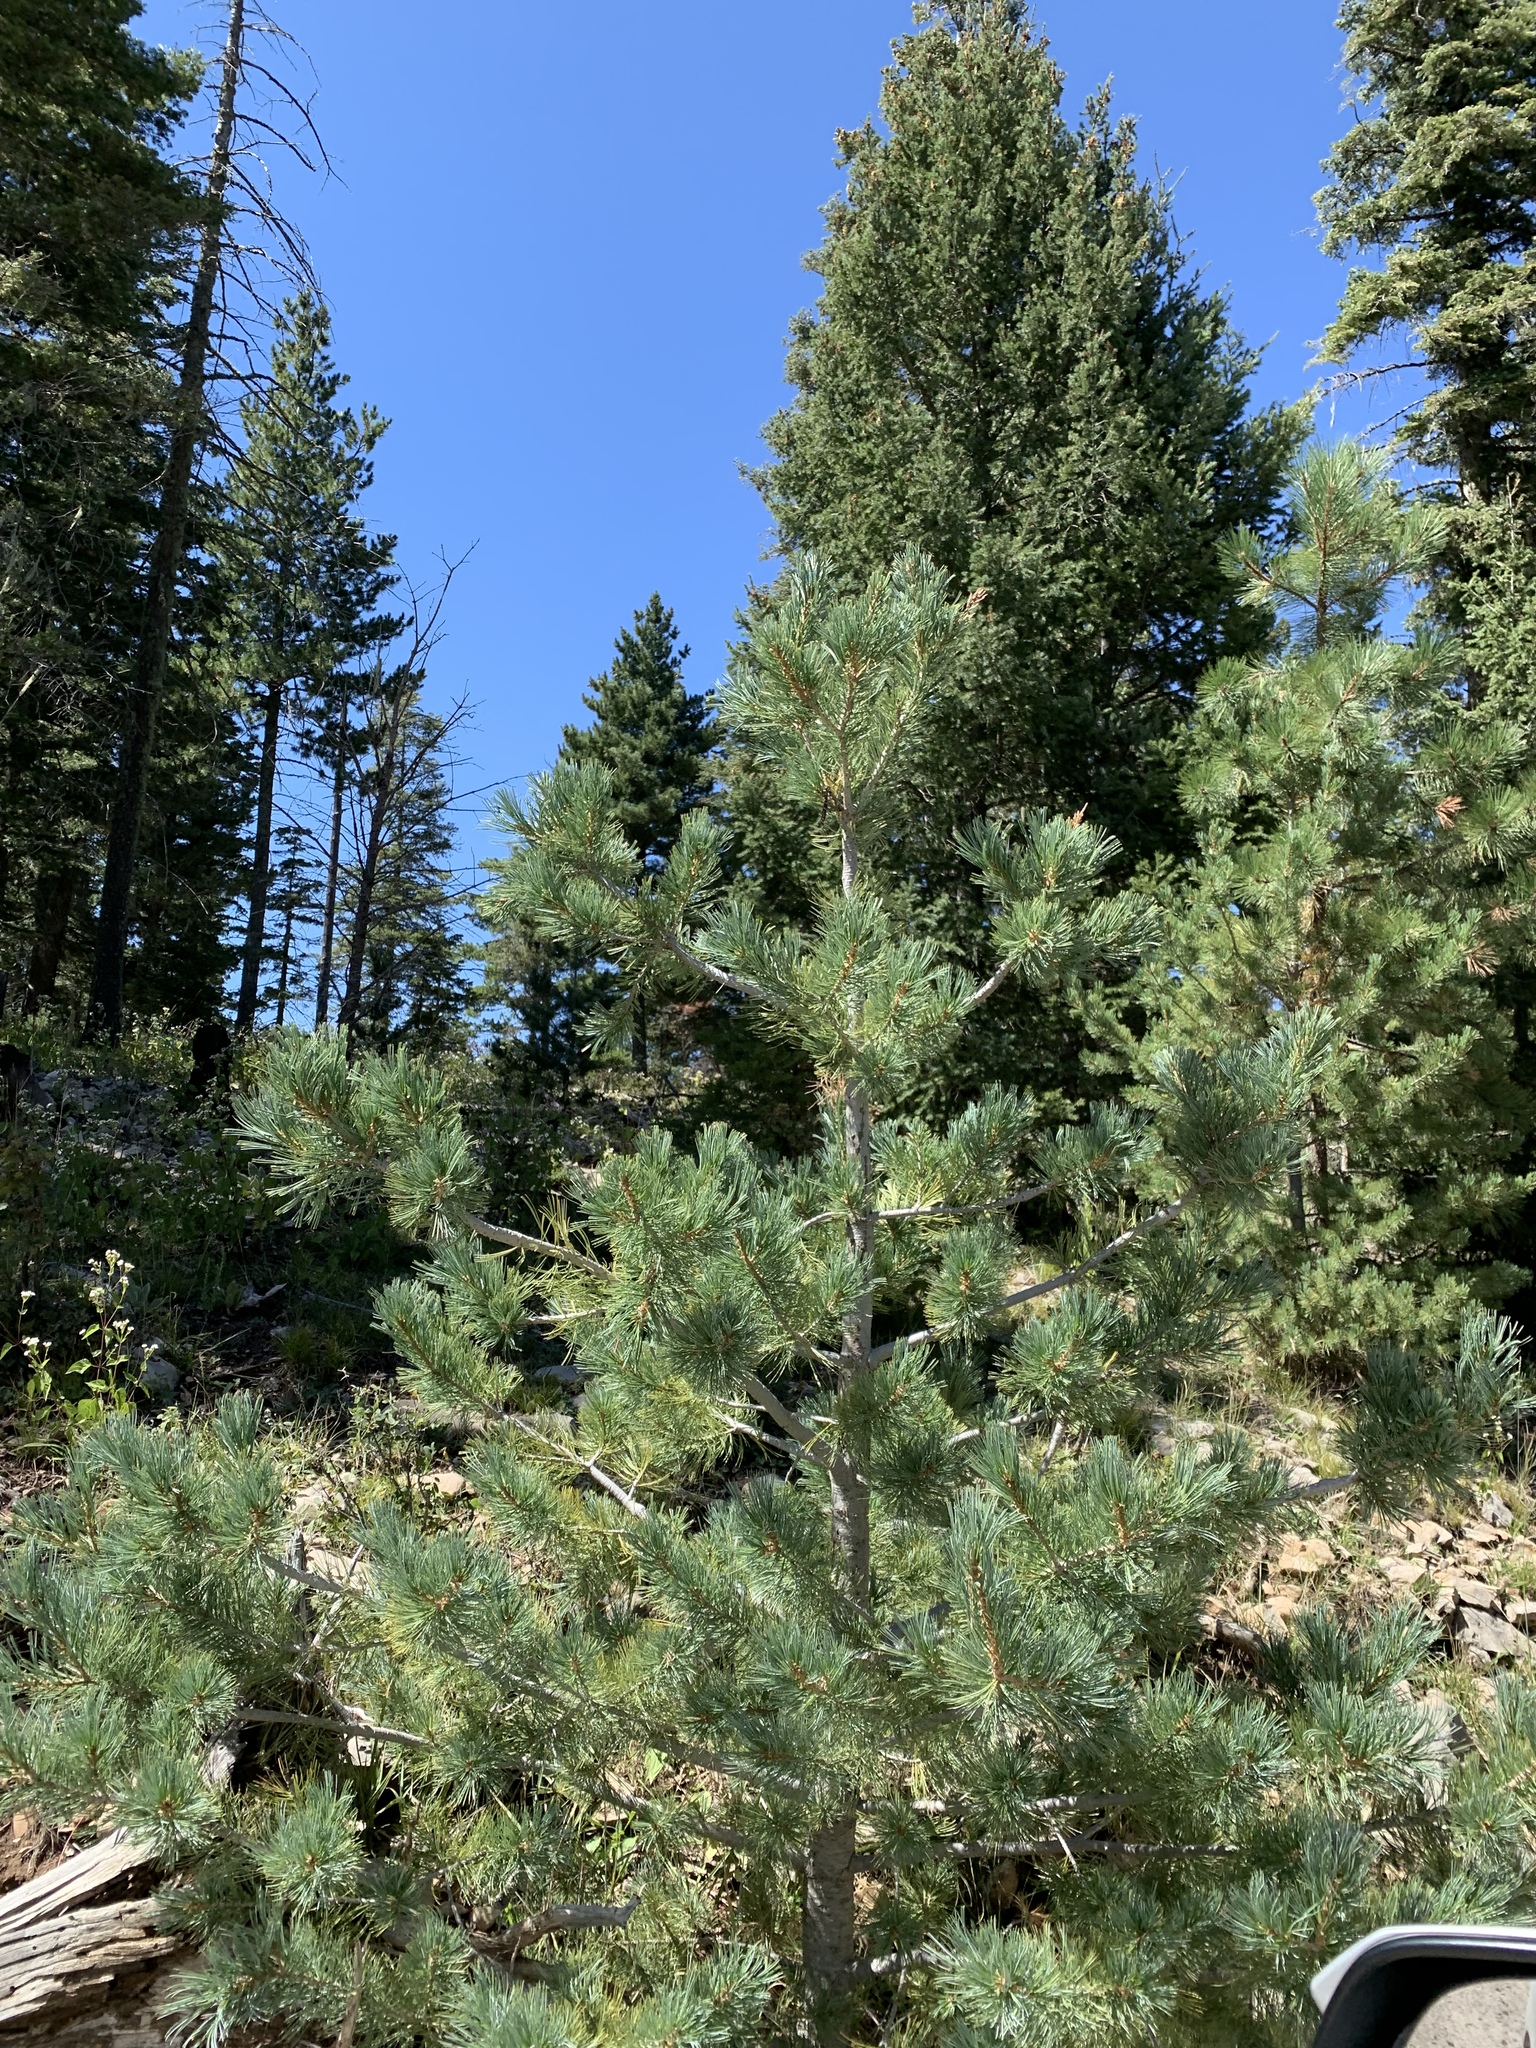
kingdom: Plantae
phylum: Tracheophyta
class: Pinopsida
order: Pinales
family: Pinaceae
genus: Pinus
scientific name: Pinus strobiformis
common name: Southwestern white pine
